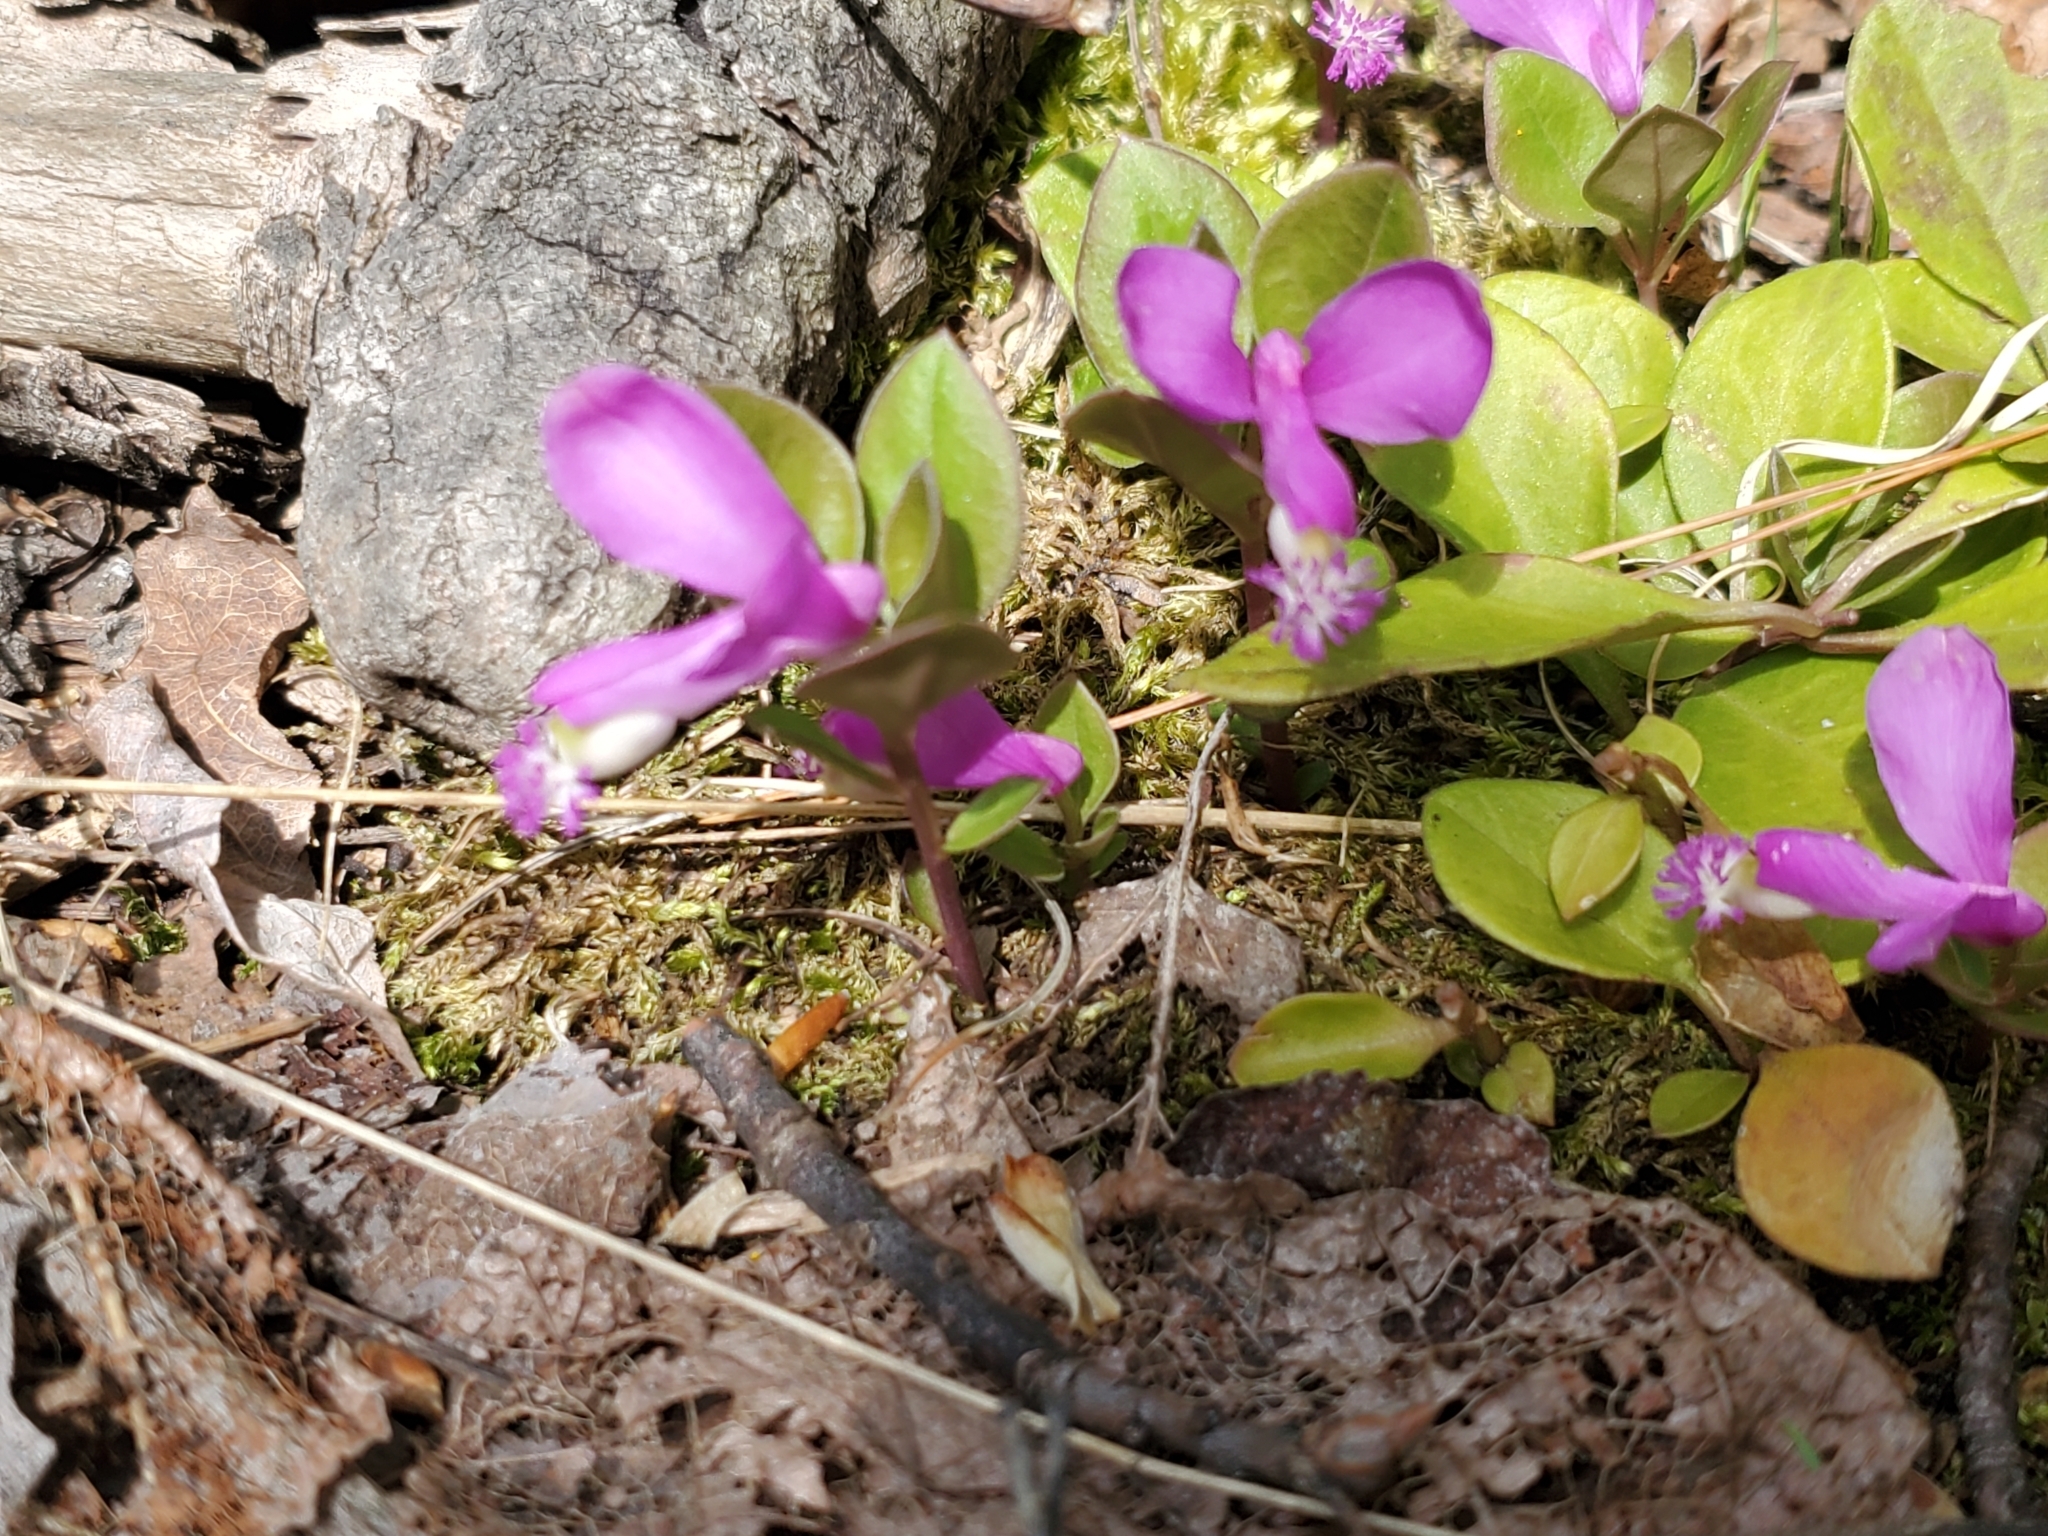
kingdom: Plantae
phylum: Tracheophyta
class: Magnoliopsida
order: Fabales
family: Polygalaceae
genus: Polygaloides
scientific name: Polygaloides paucifolia
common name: Bird-on-the-wing
